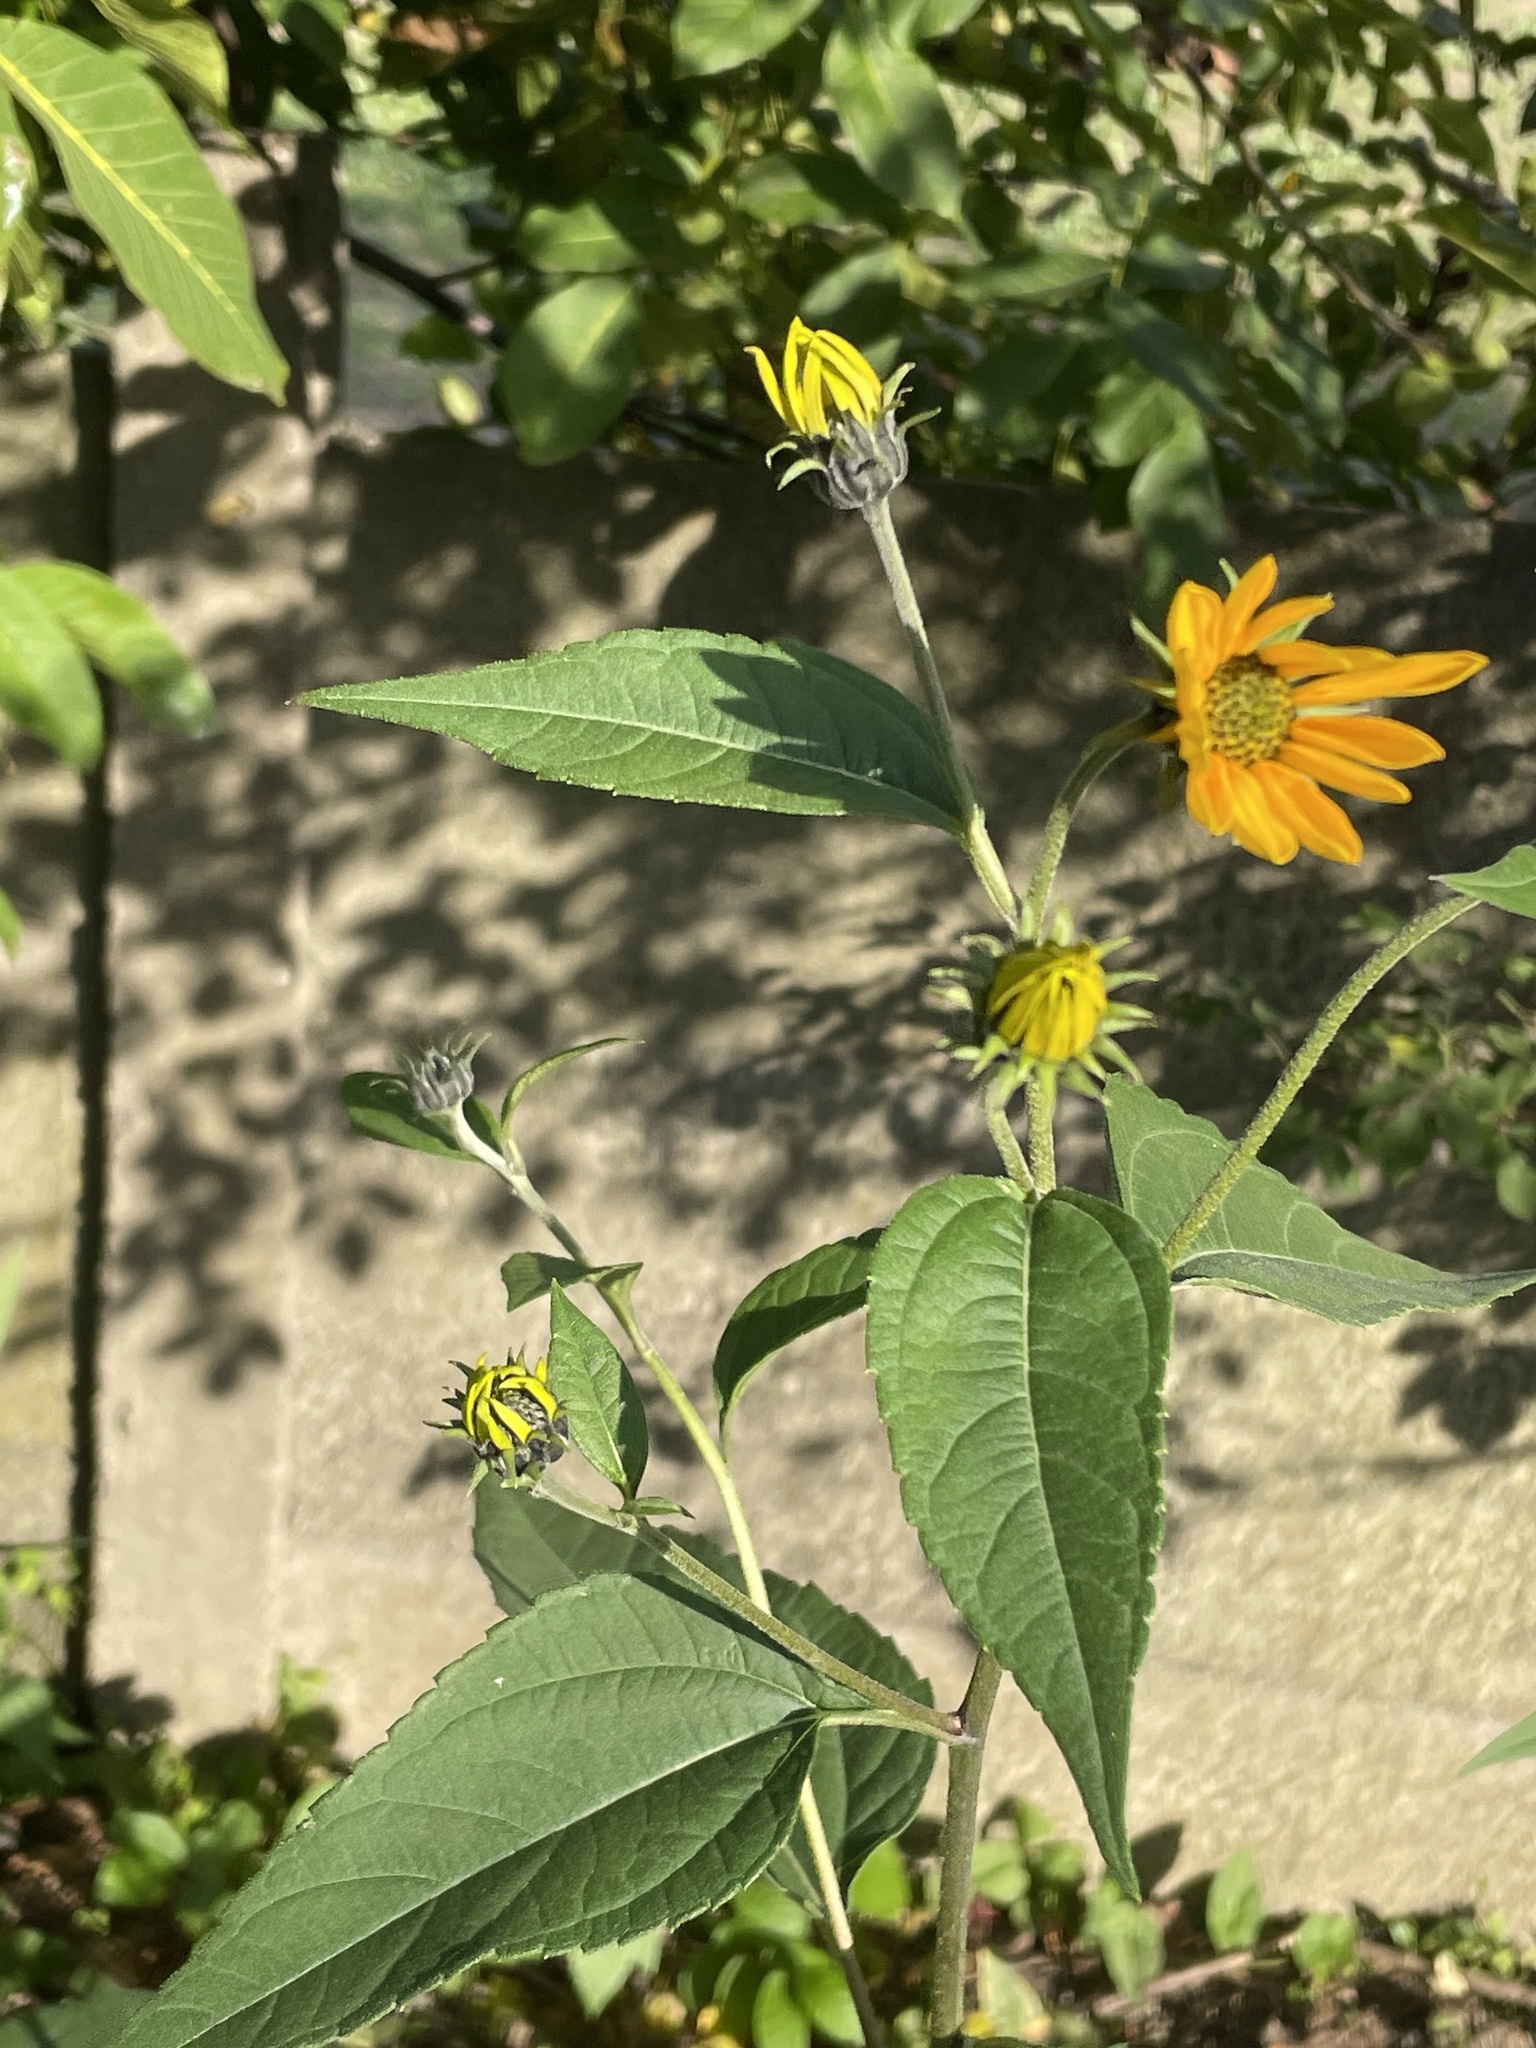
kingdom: Plantae
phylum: Tracheophyta
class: Magnoliopsida
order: Asterales
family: Asteraceae
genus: Helianthus
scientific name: Helianthus tuberosus
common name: Jerusalem artichoke
